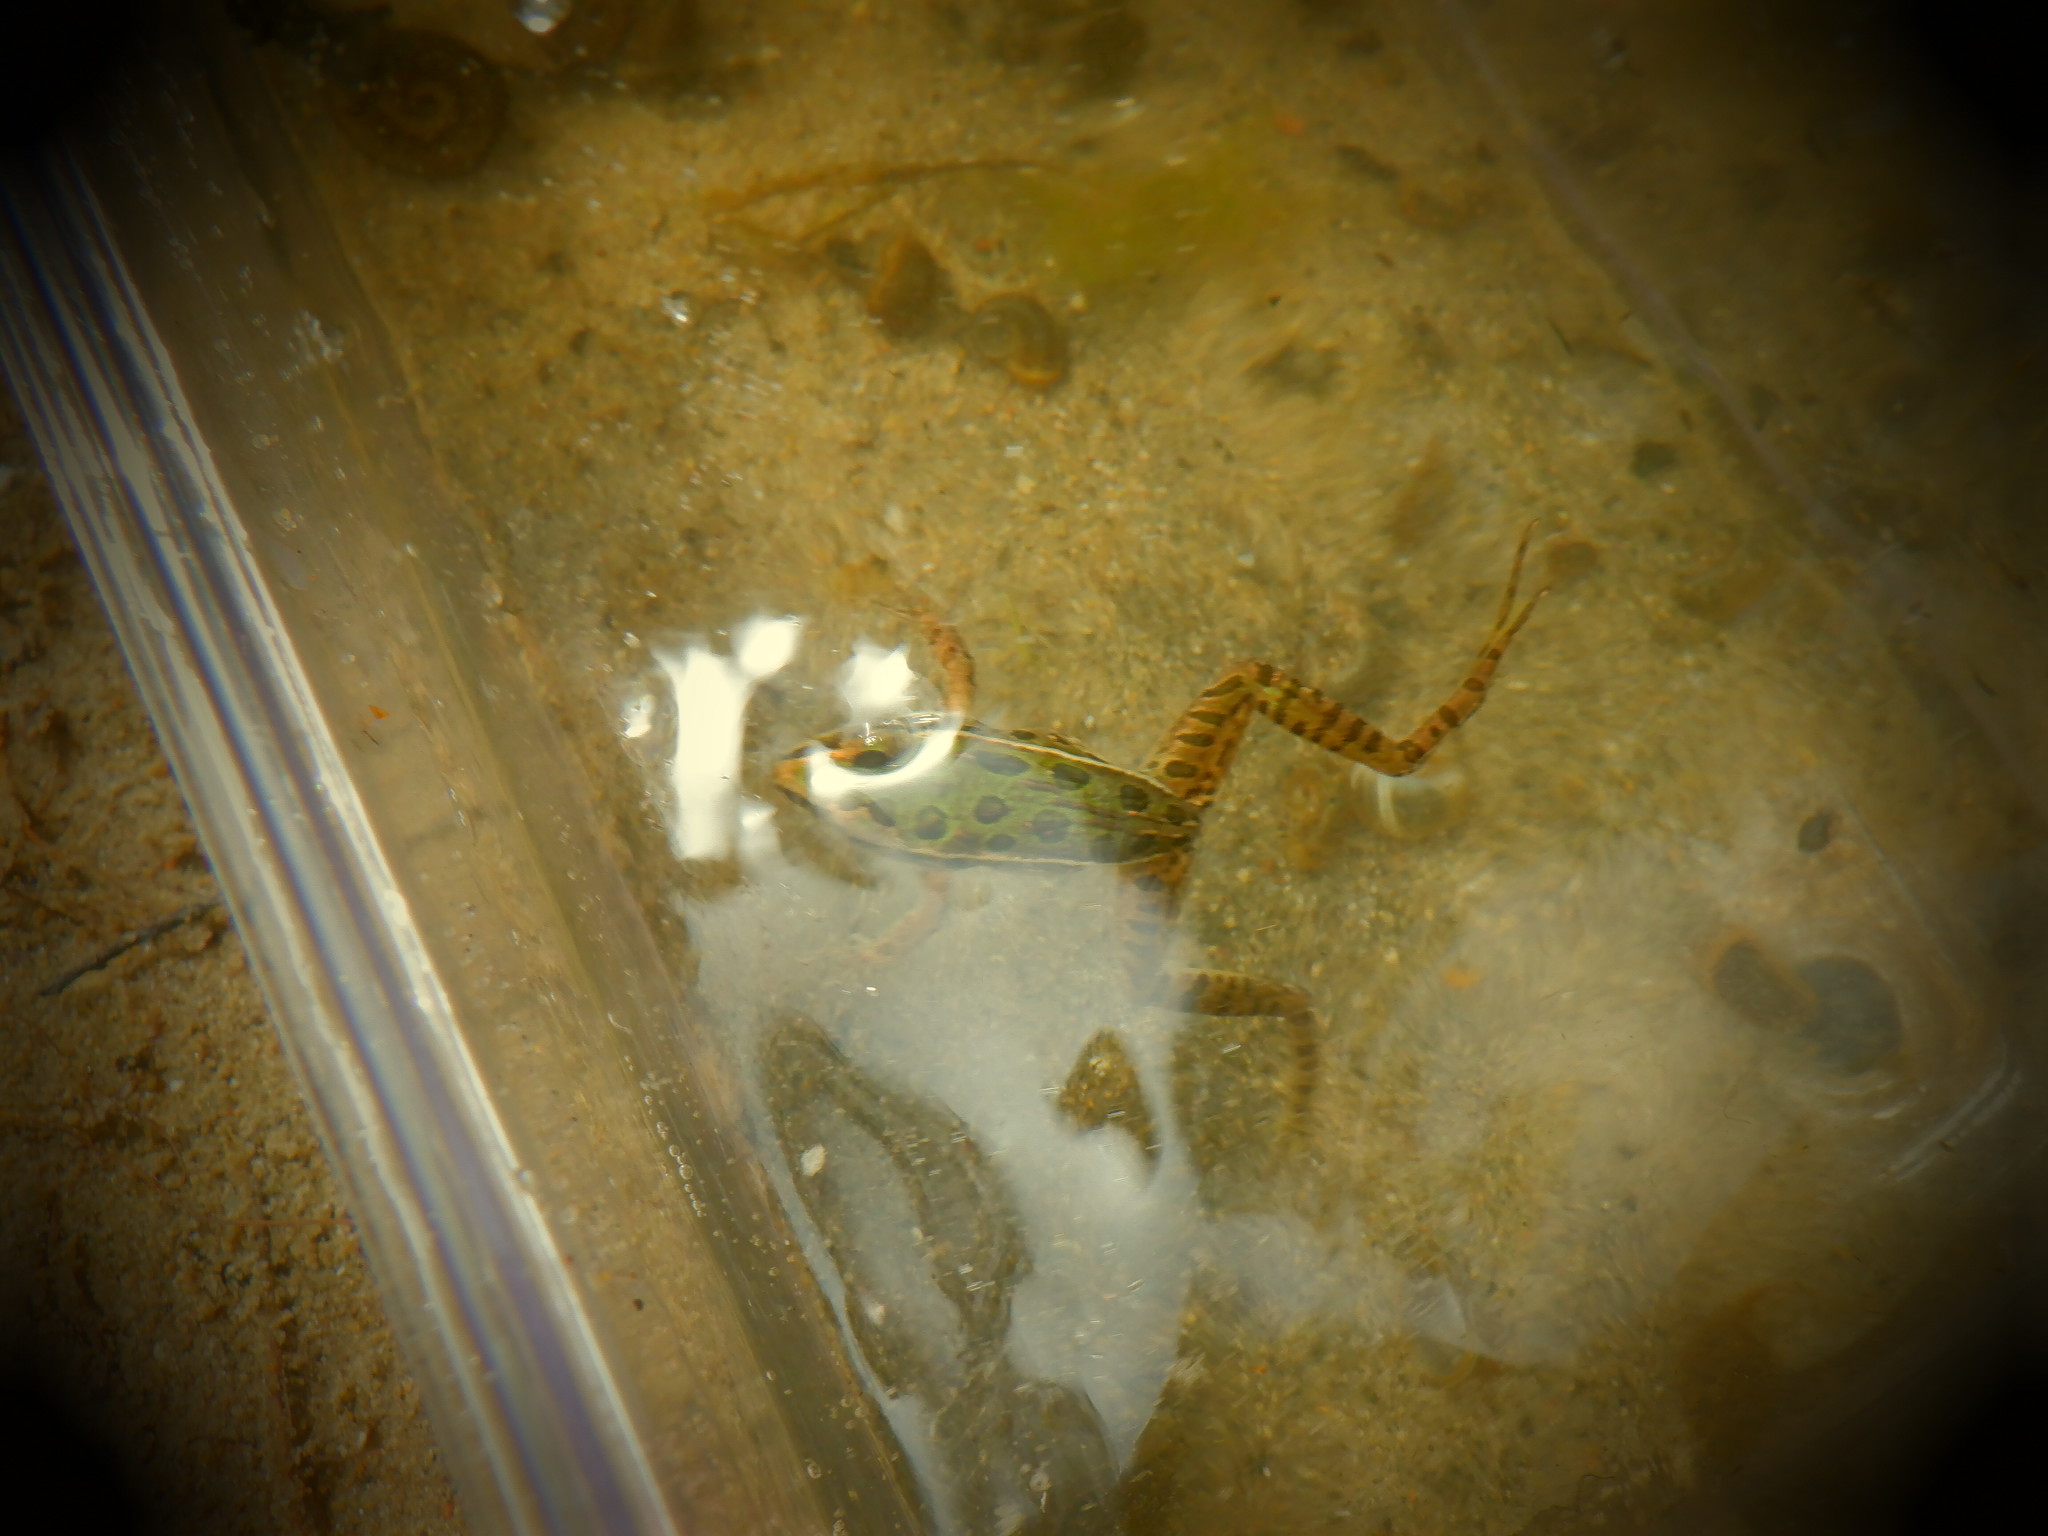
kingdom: Animalia
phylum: Chordata
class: Amphibia
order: Anura
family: Ranidae
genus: Lithobates
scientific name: Lithobates pipiens
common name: Northern leopard frog
